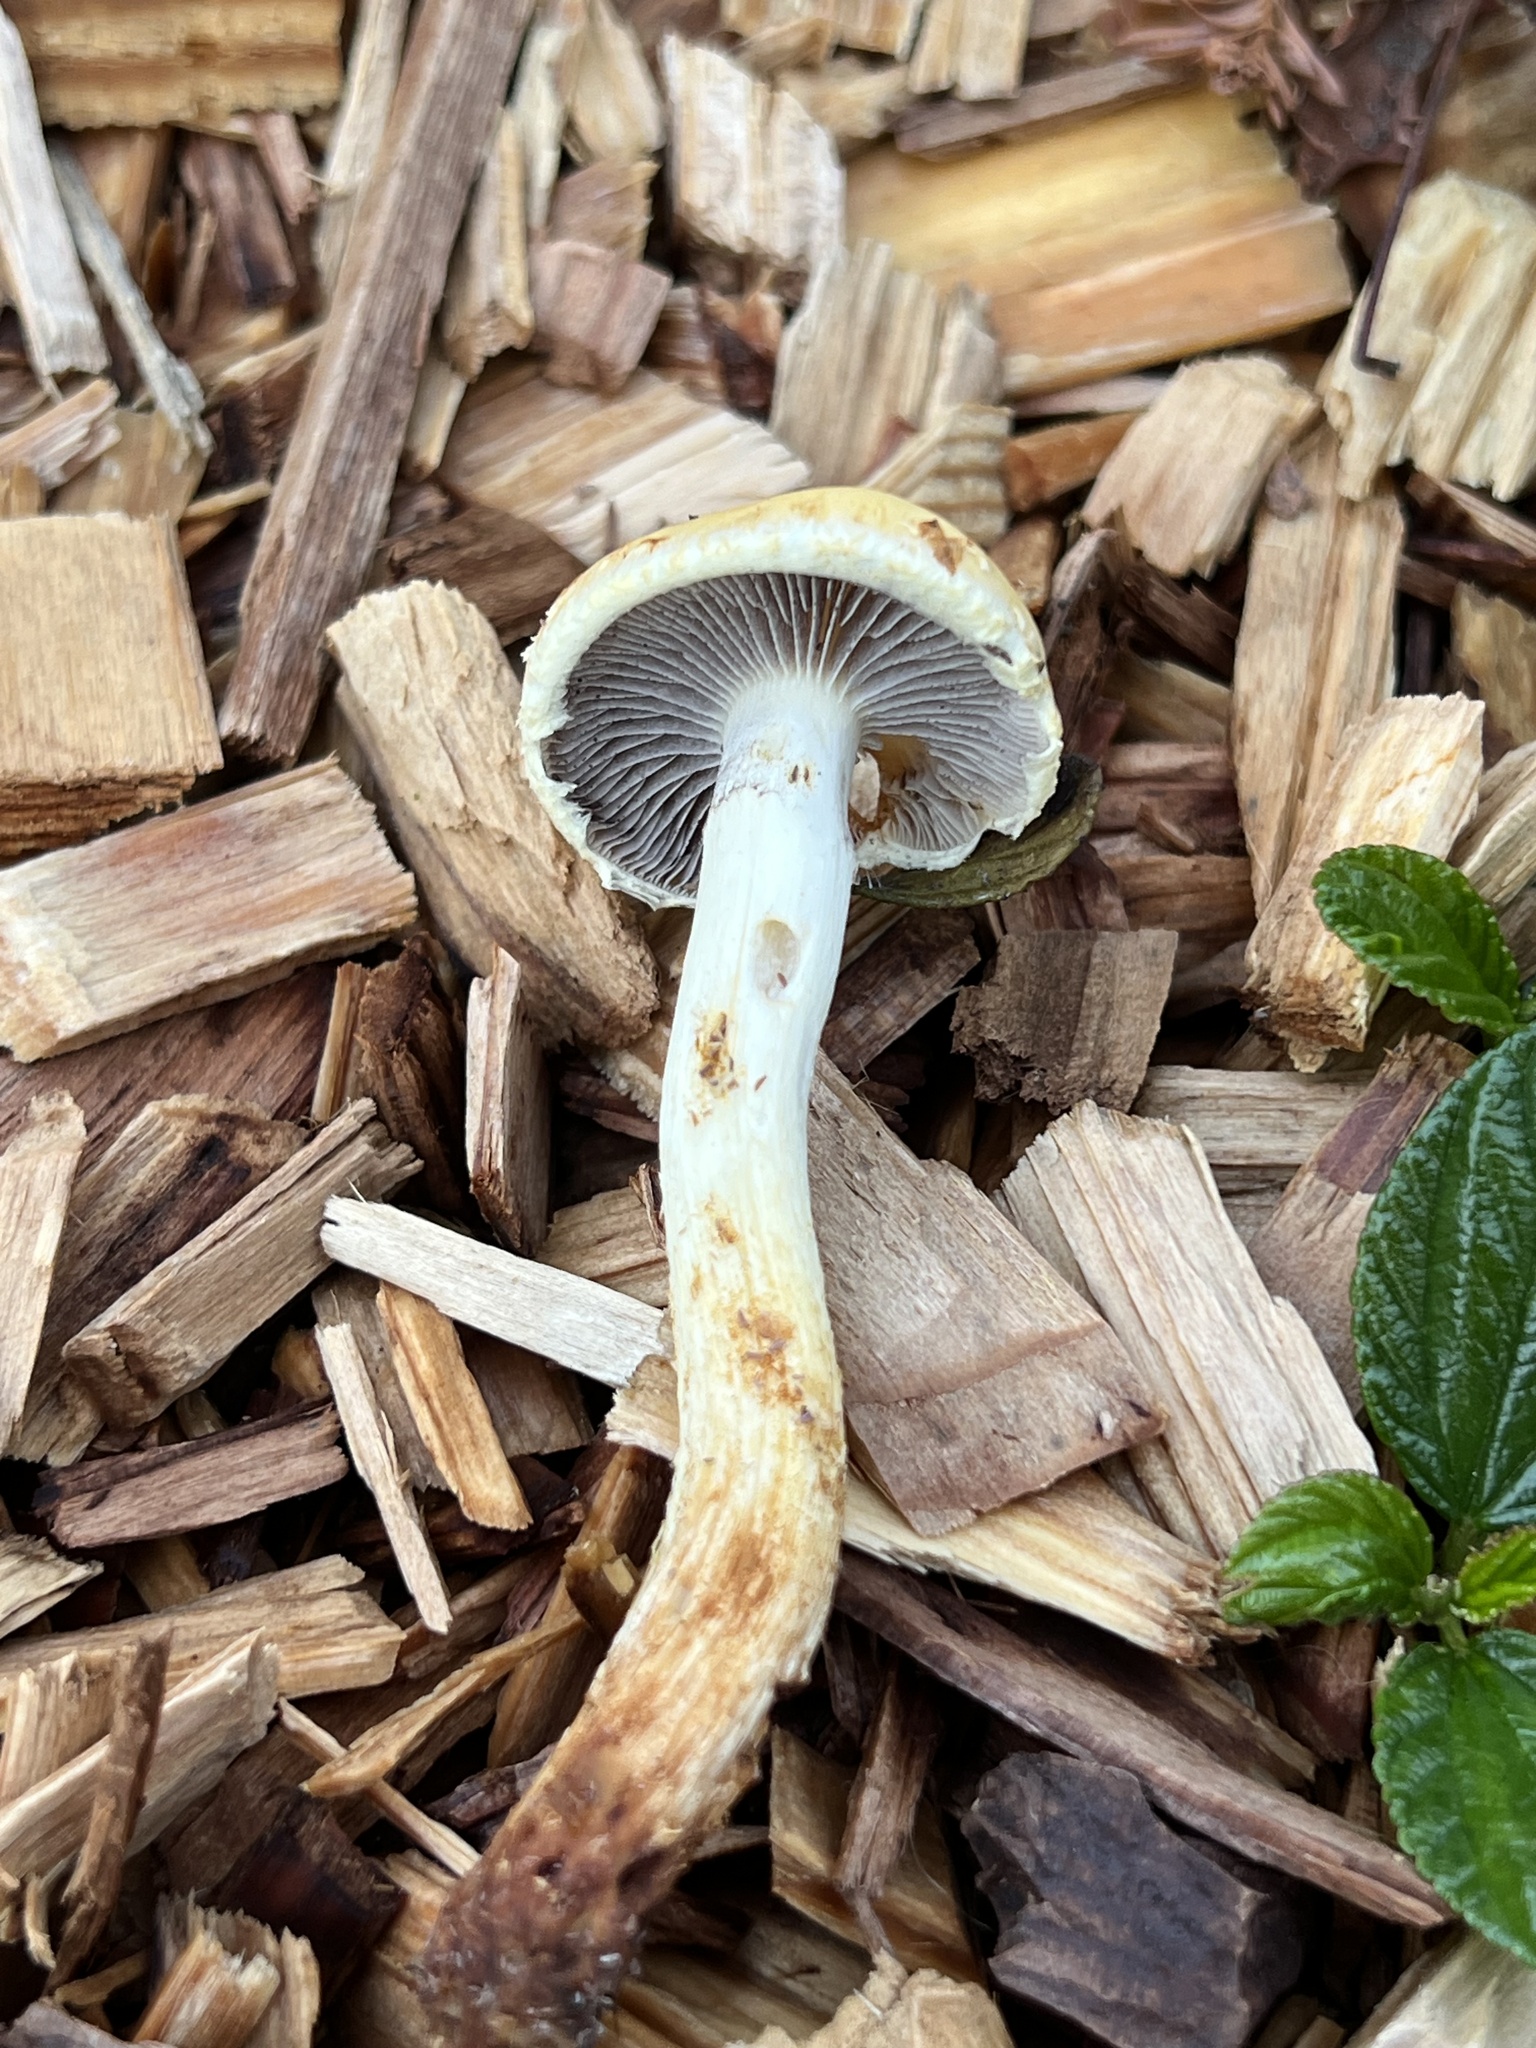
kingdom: Fungi
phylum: Basidiomycota
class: Agaricomycetes
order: Agaricales
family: Strophariaceae
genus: Leratiomyces
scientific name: Leratiomyces percevalii
